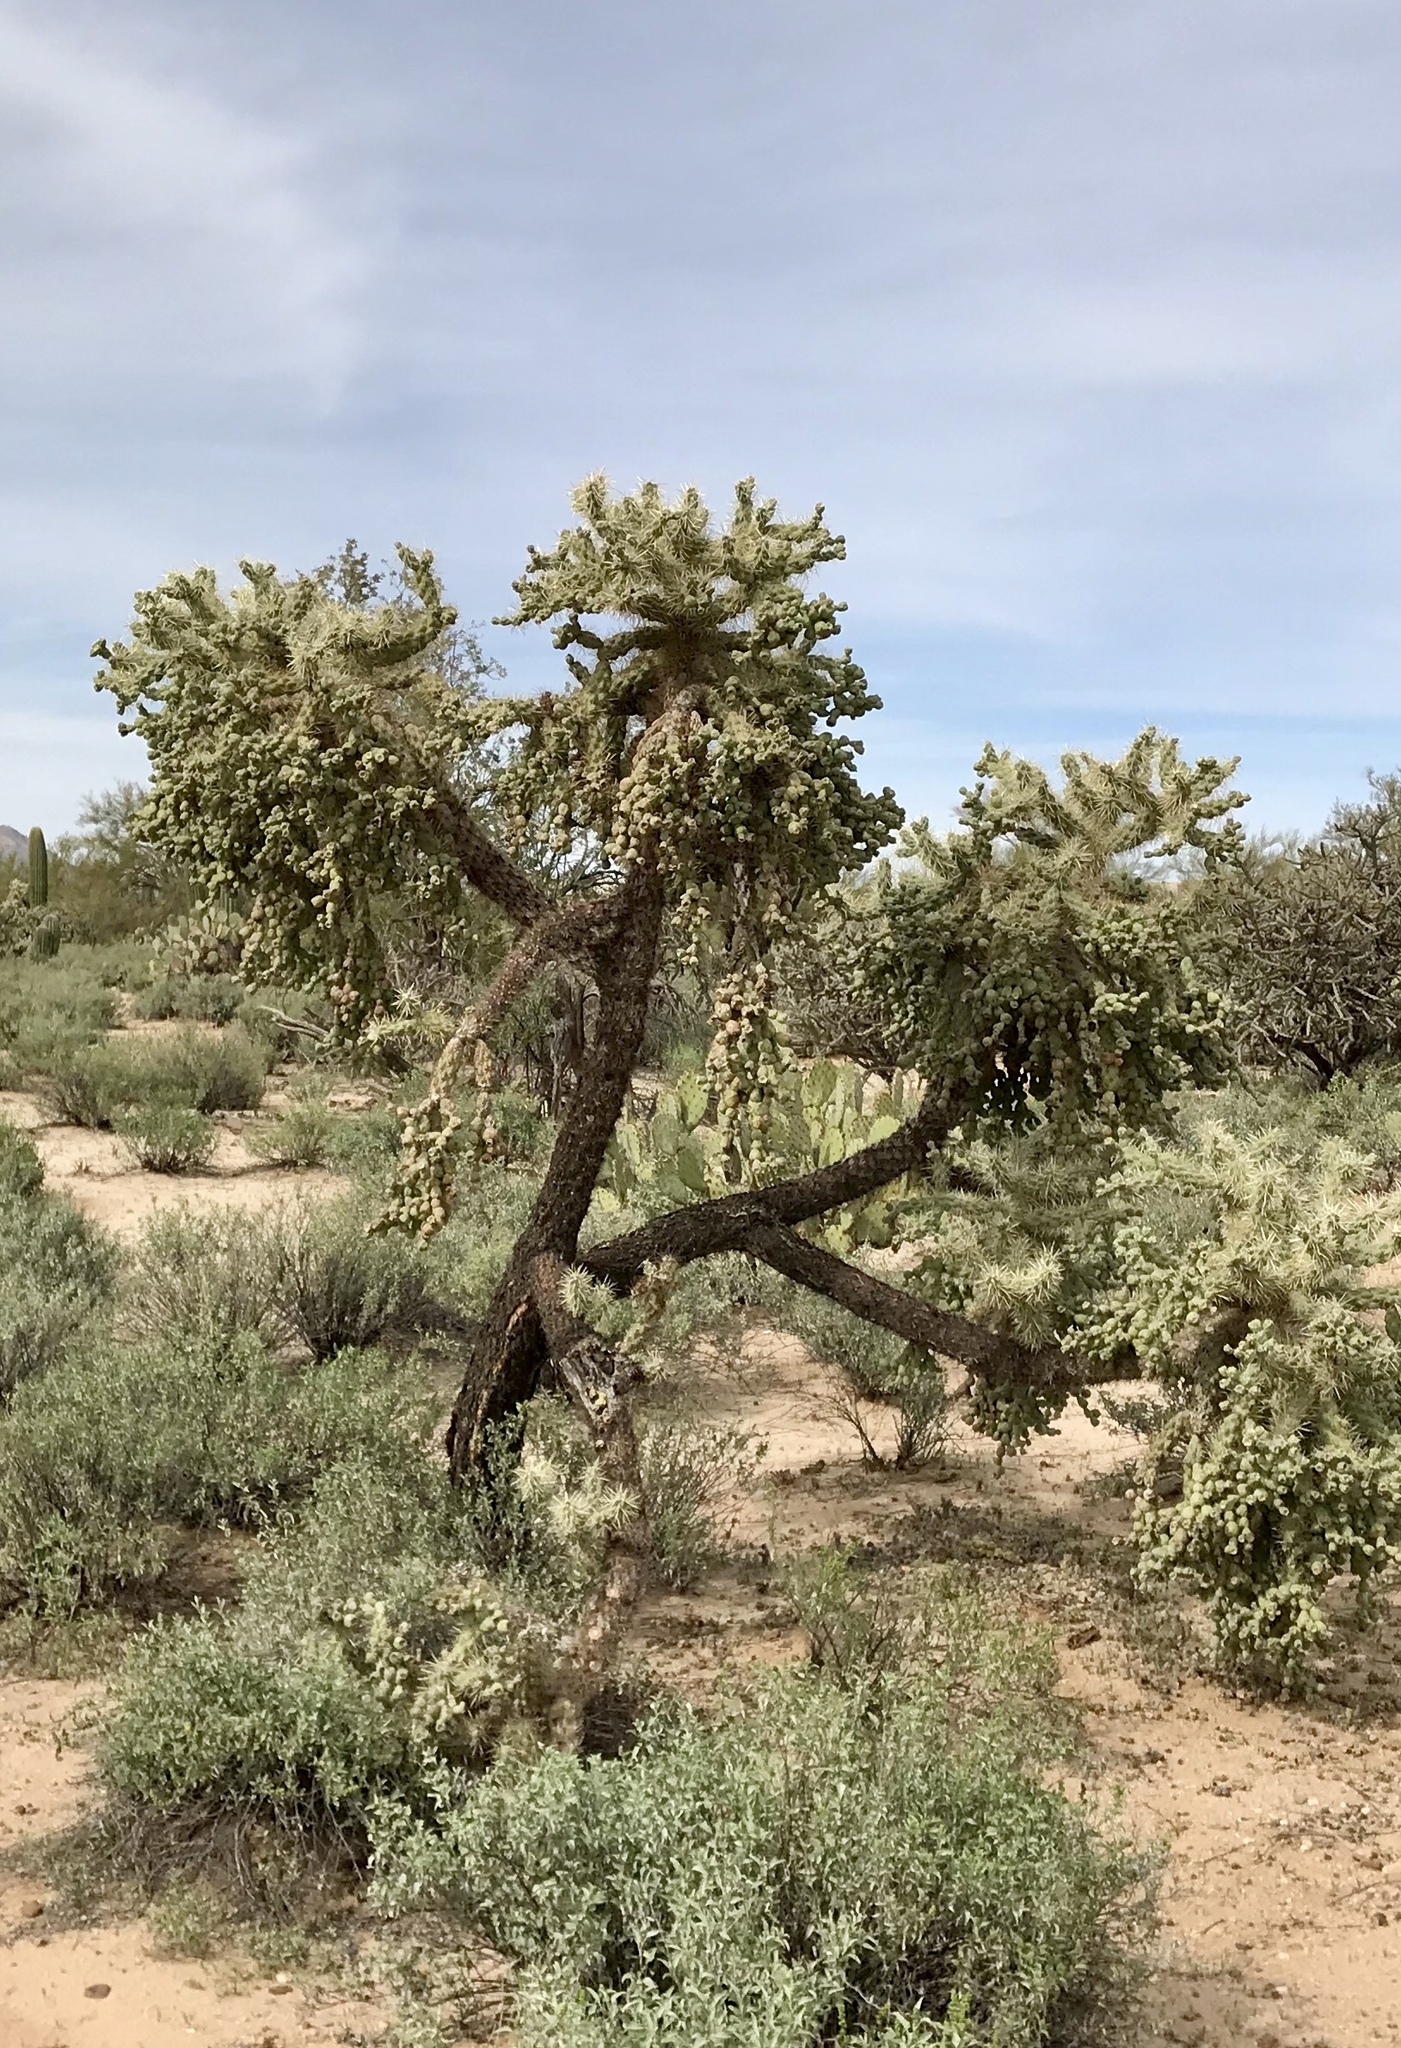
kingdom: Plantae
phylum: Tracheophyta
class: Magnoliopsida
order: Caryophyllales
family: Cactaceae
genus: Cylindropuntia
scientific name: Cylindropuntia fulgida
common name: Jumping cholla
